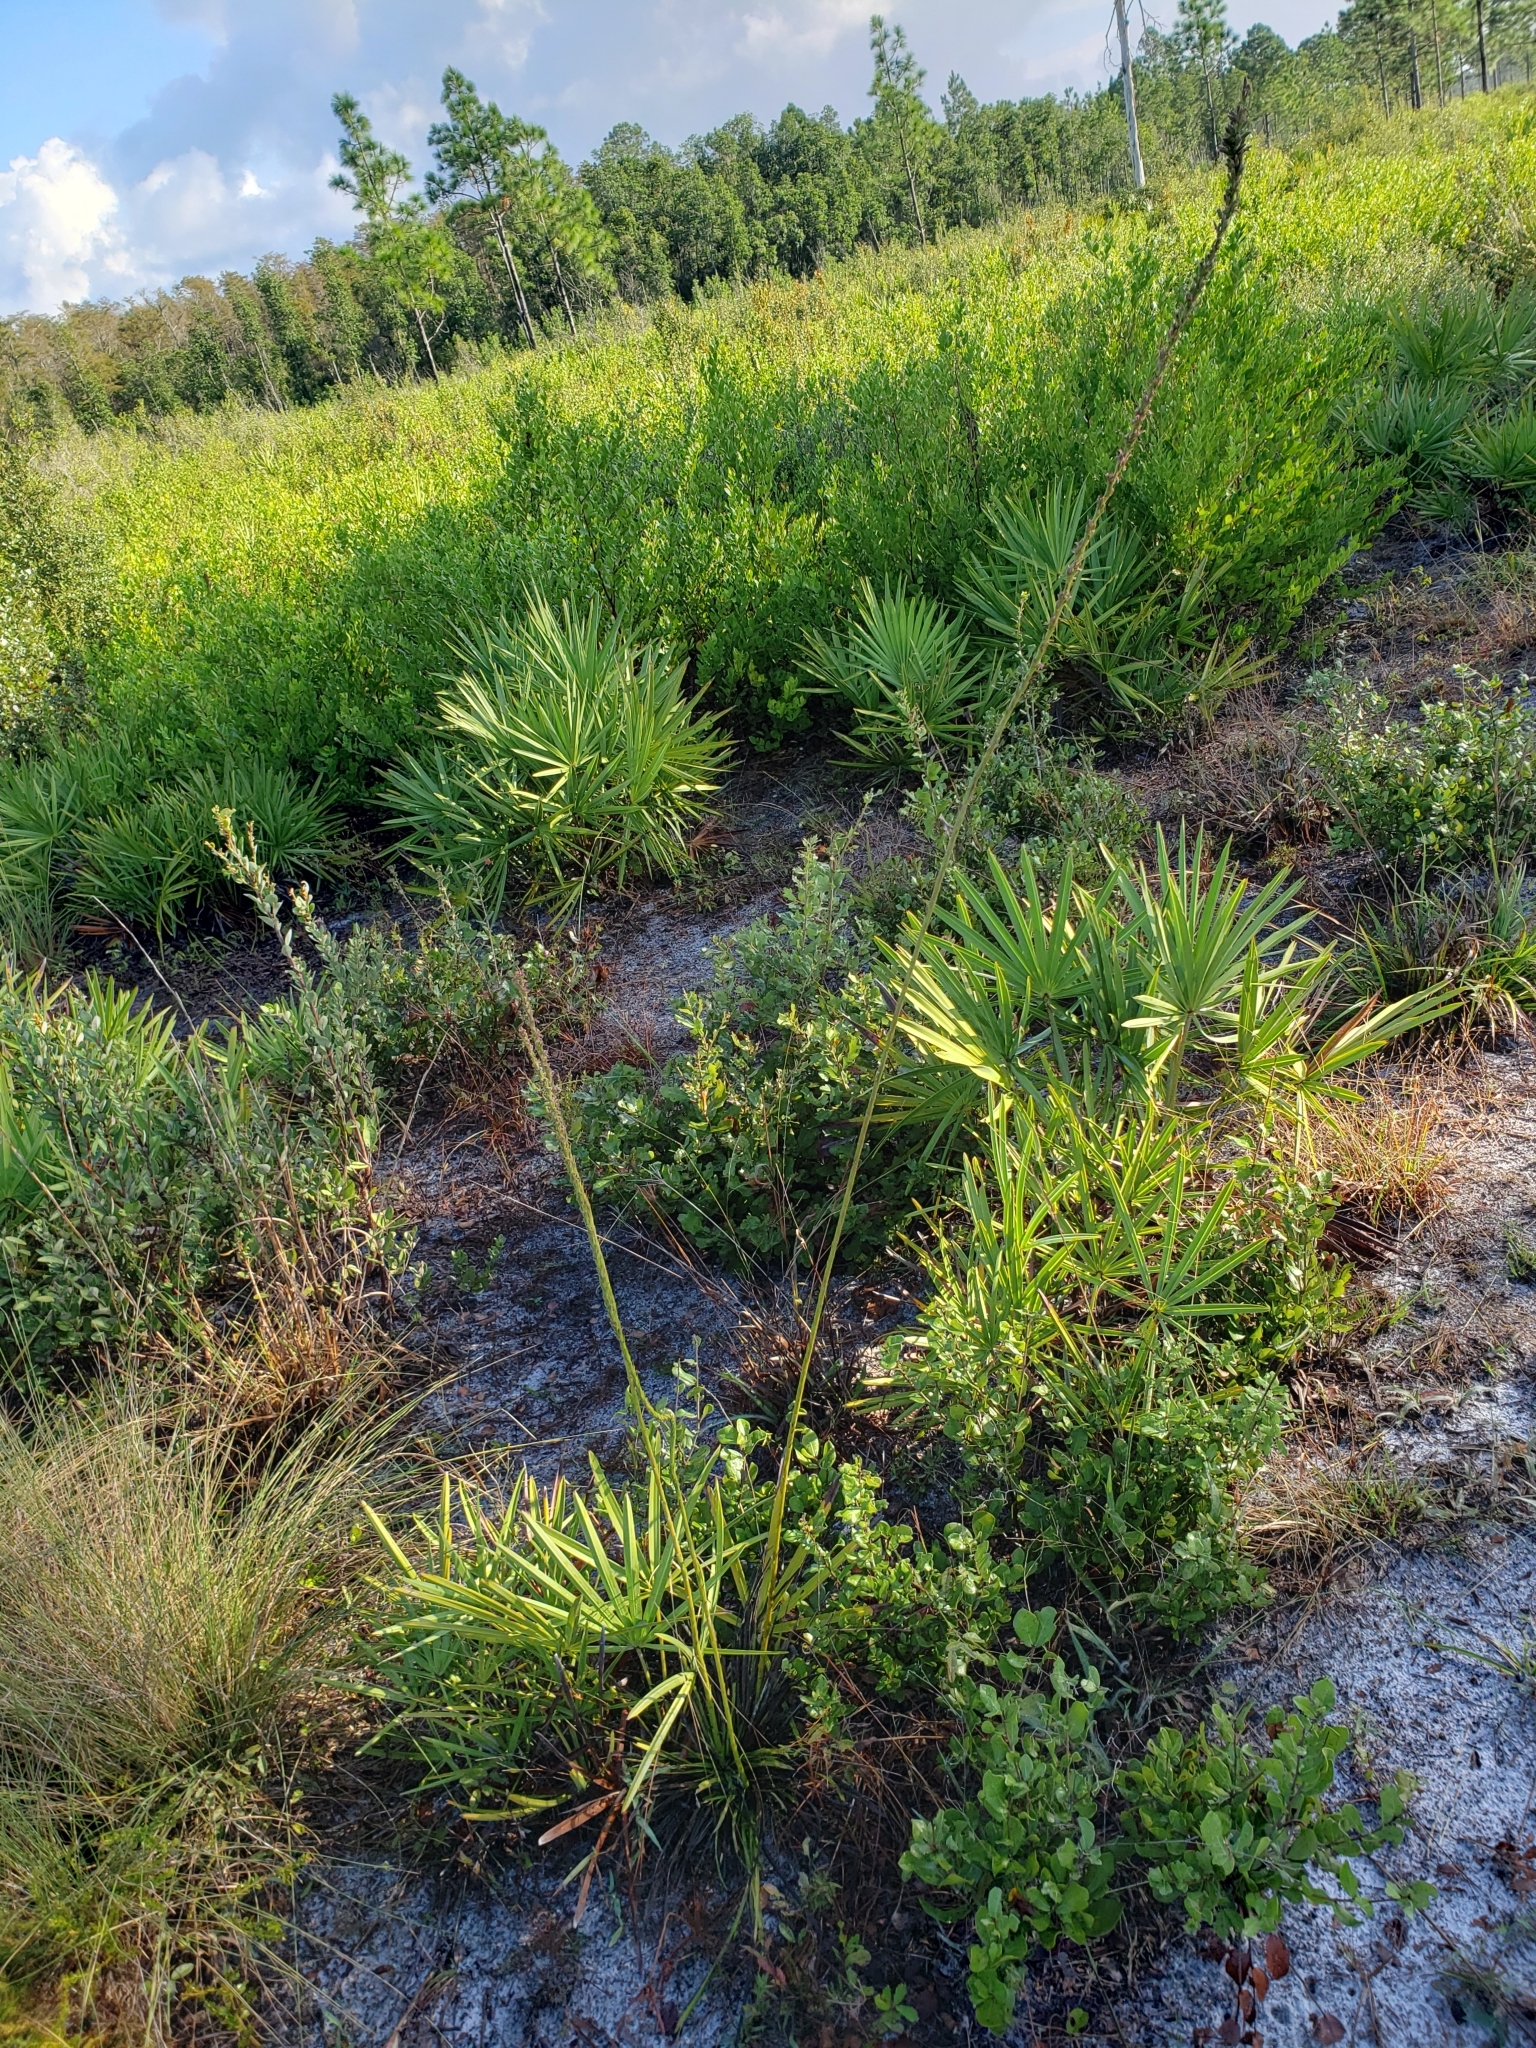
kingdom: Plantae
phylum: Tracheophyta
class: Magnoliopsida
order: Asterales
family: Asteraceae
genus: Liatris
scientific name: Liatris laevigata
